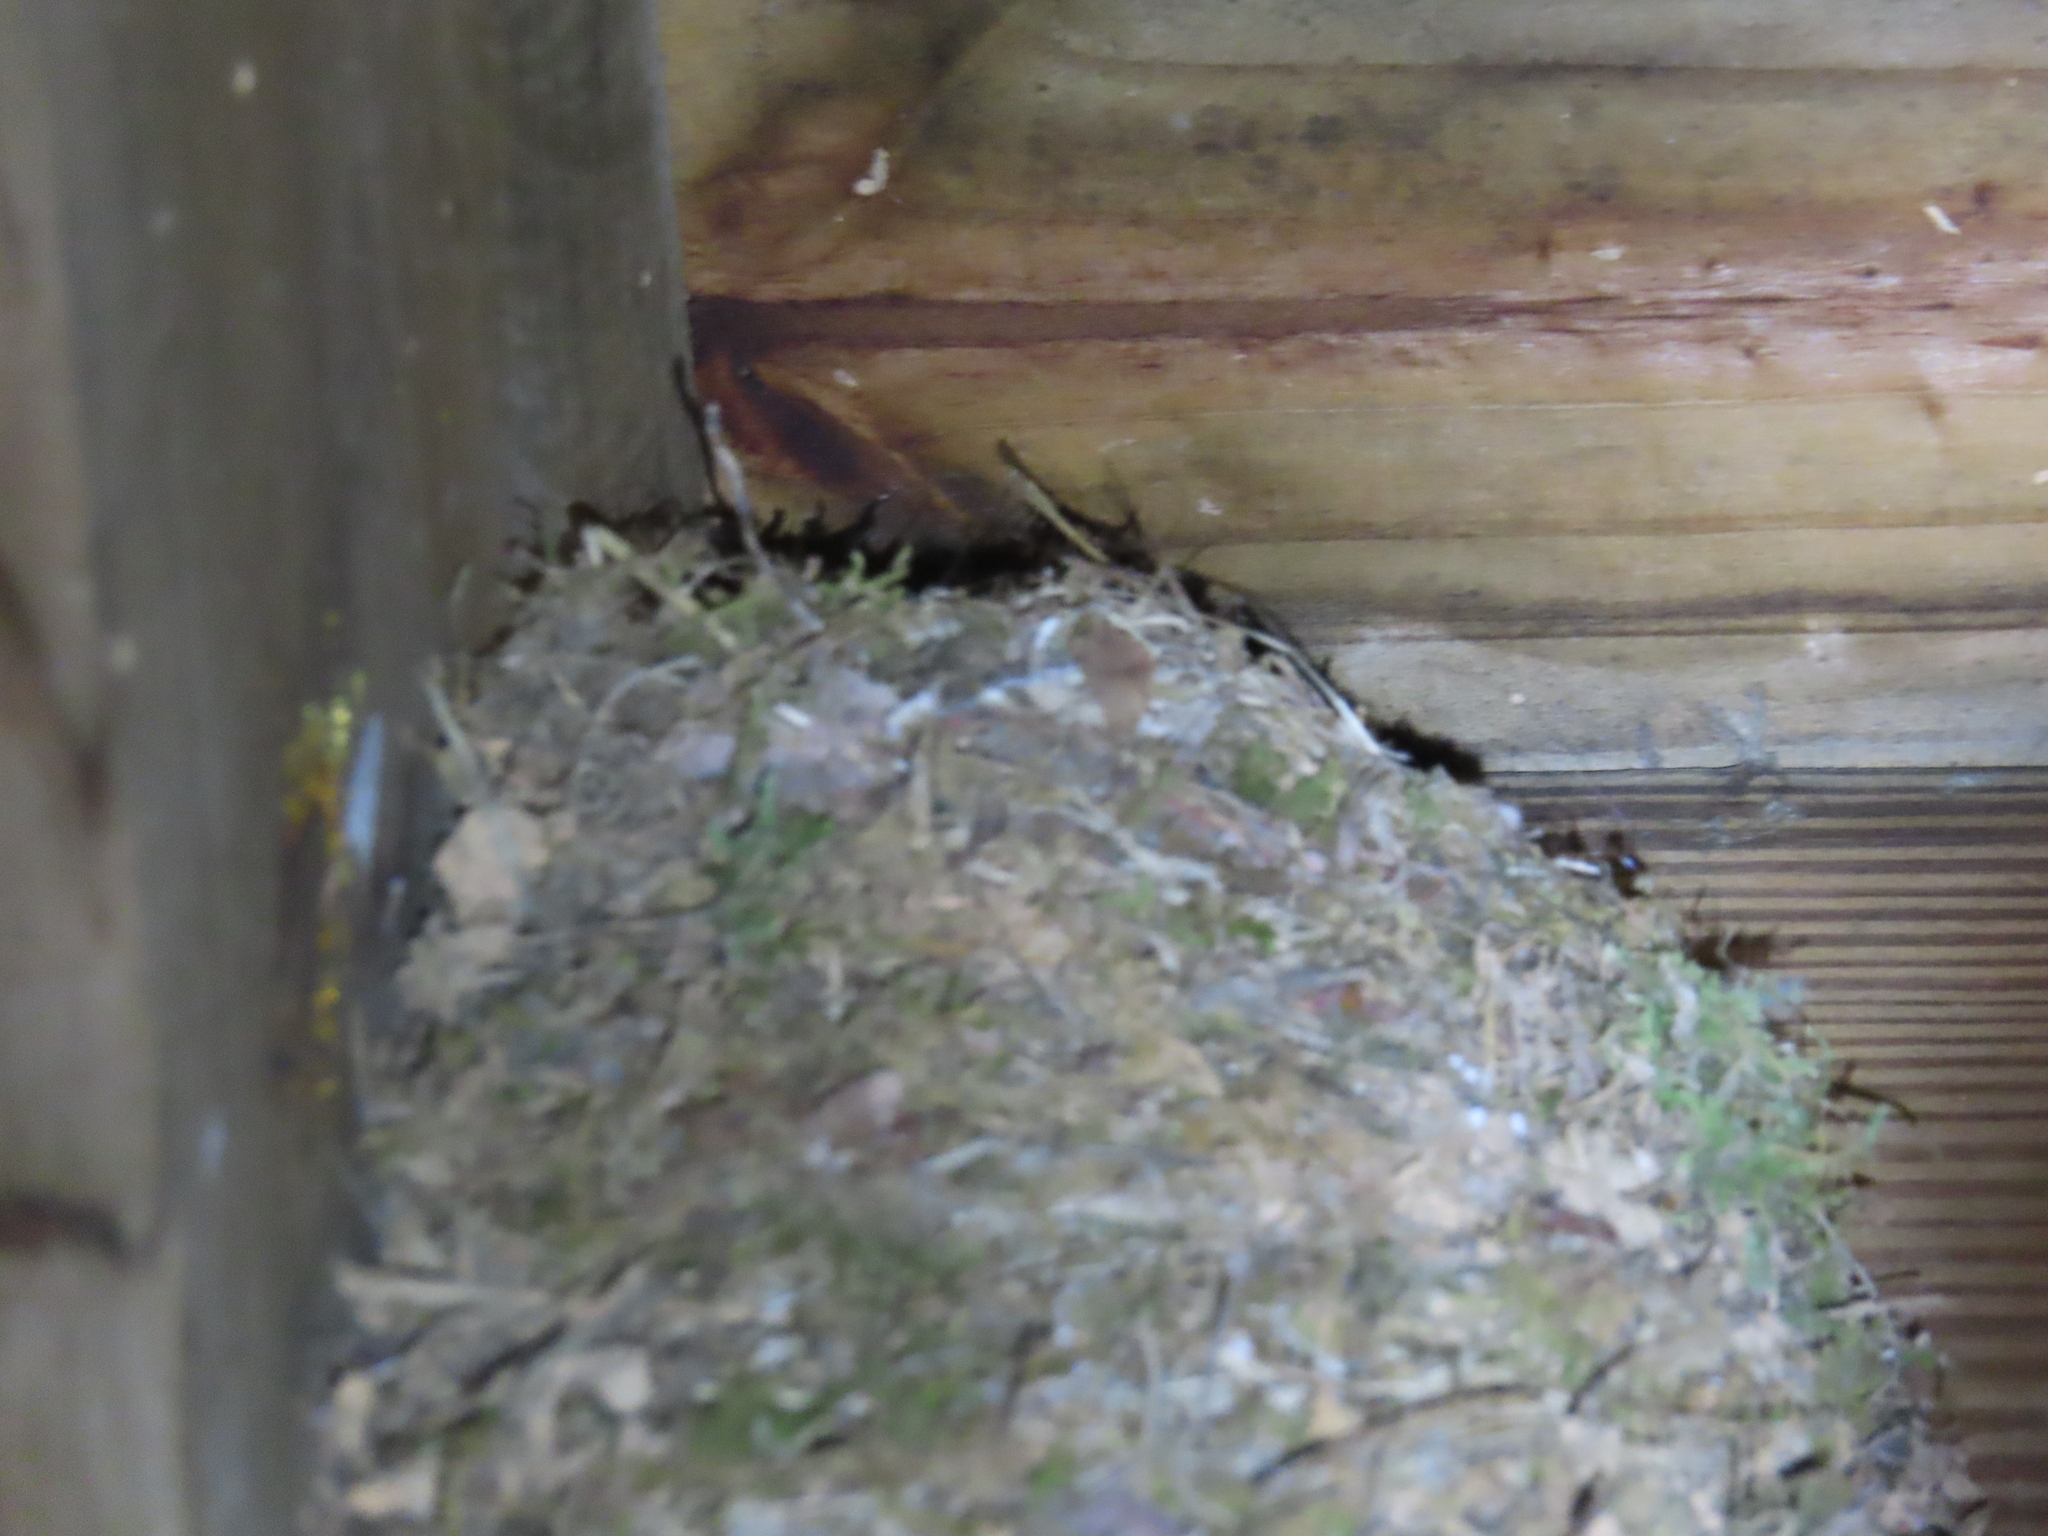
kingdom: Animalia
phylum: Chordata
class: Aves
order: Passeriformes
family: Hirundinidae
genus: Hirundo
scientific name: Hirundo rustica
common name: Barn swallow
